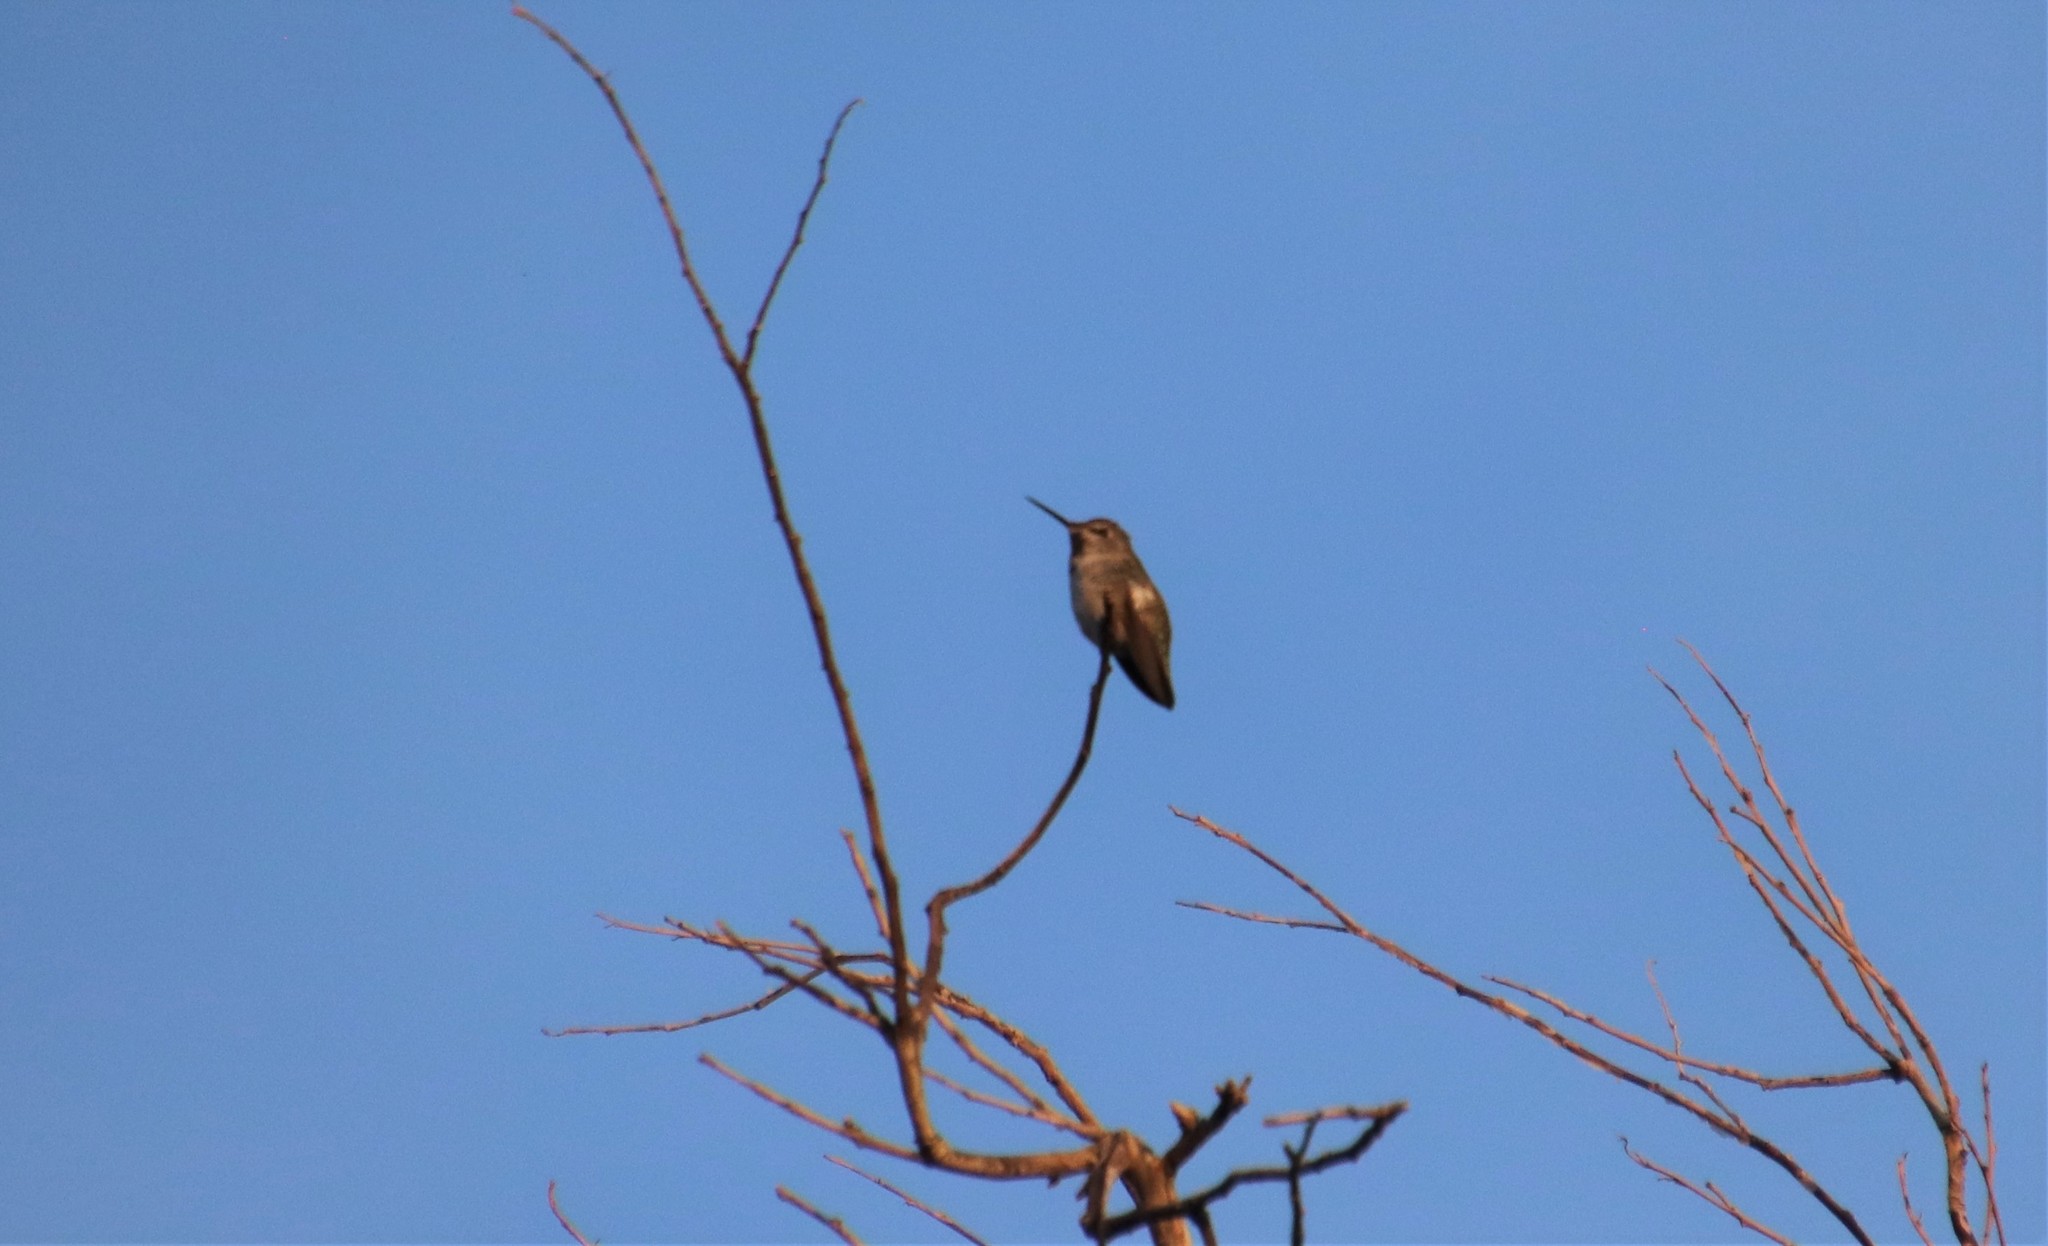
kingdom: Animalia
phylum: Chordata
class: Aves
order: Apodiformes
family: Trochilidae
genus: Calypte
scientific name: Calypte anna
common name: Anna's hummingbird
